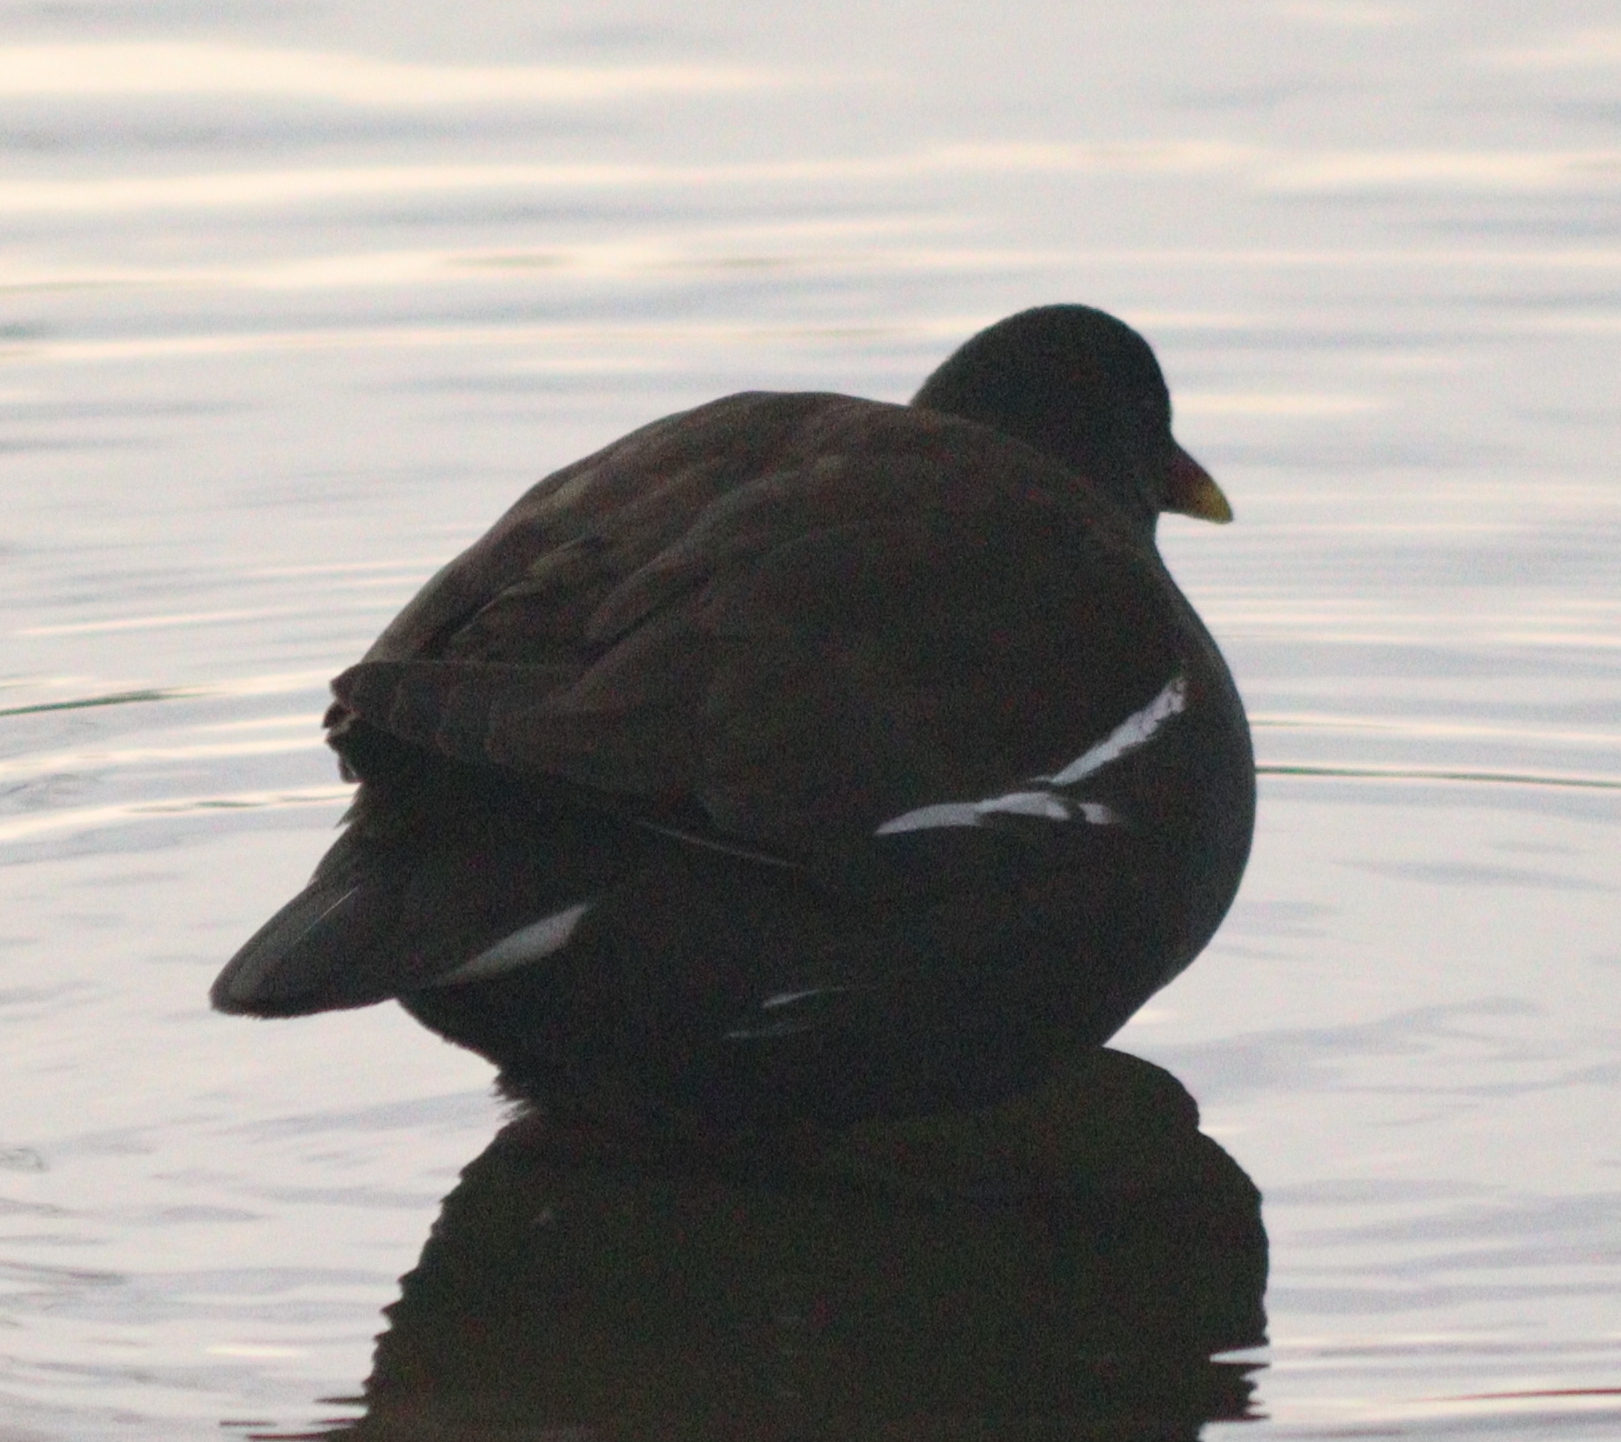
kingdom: Animalia
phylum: Chordata
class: Aves
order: Gruiformes
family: Rallidae
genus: Gallinula
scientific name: Gallinula chloropus
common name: Common moorhen
